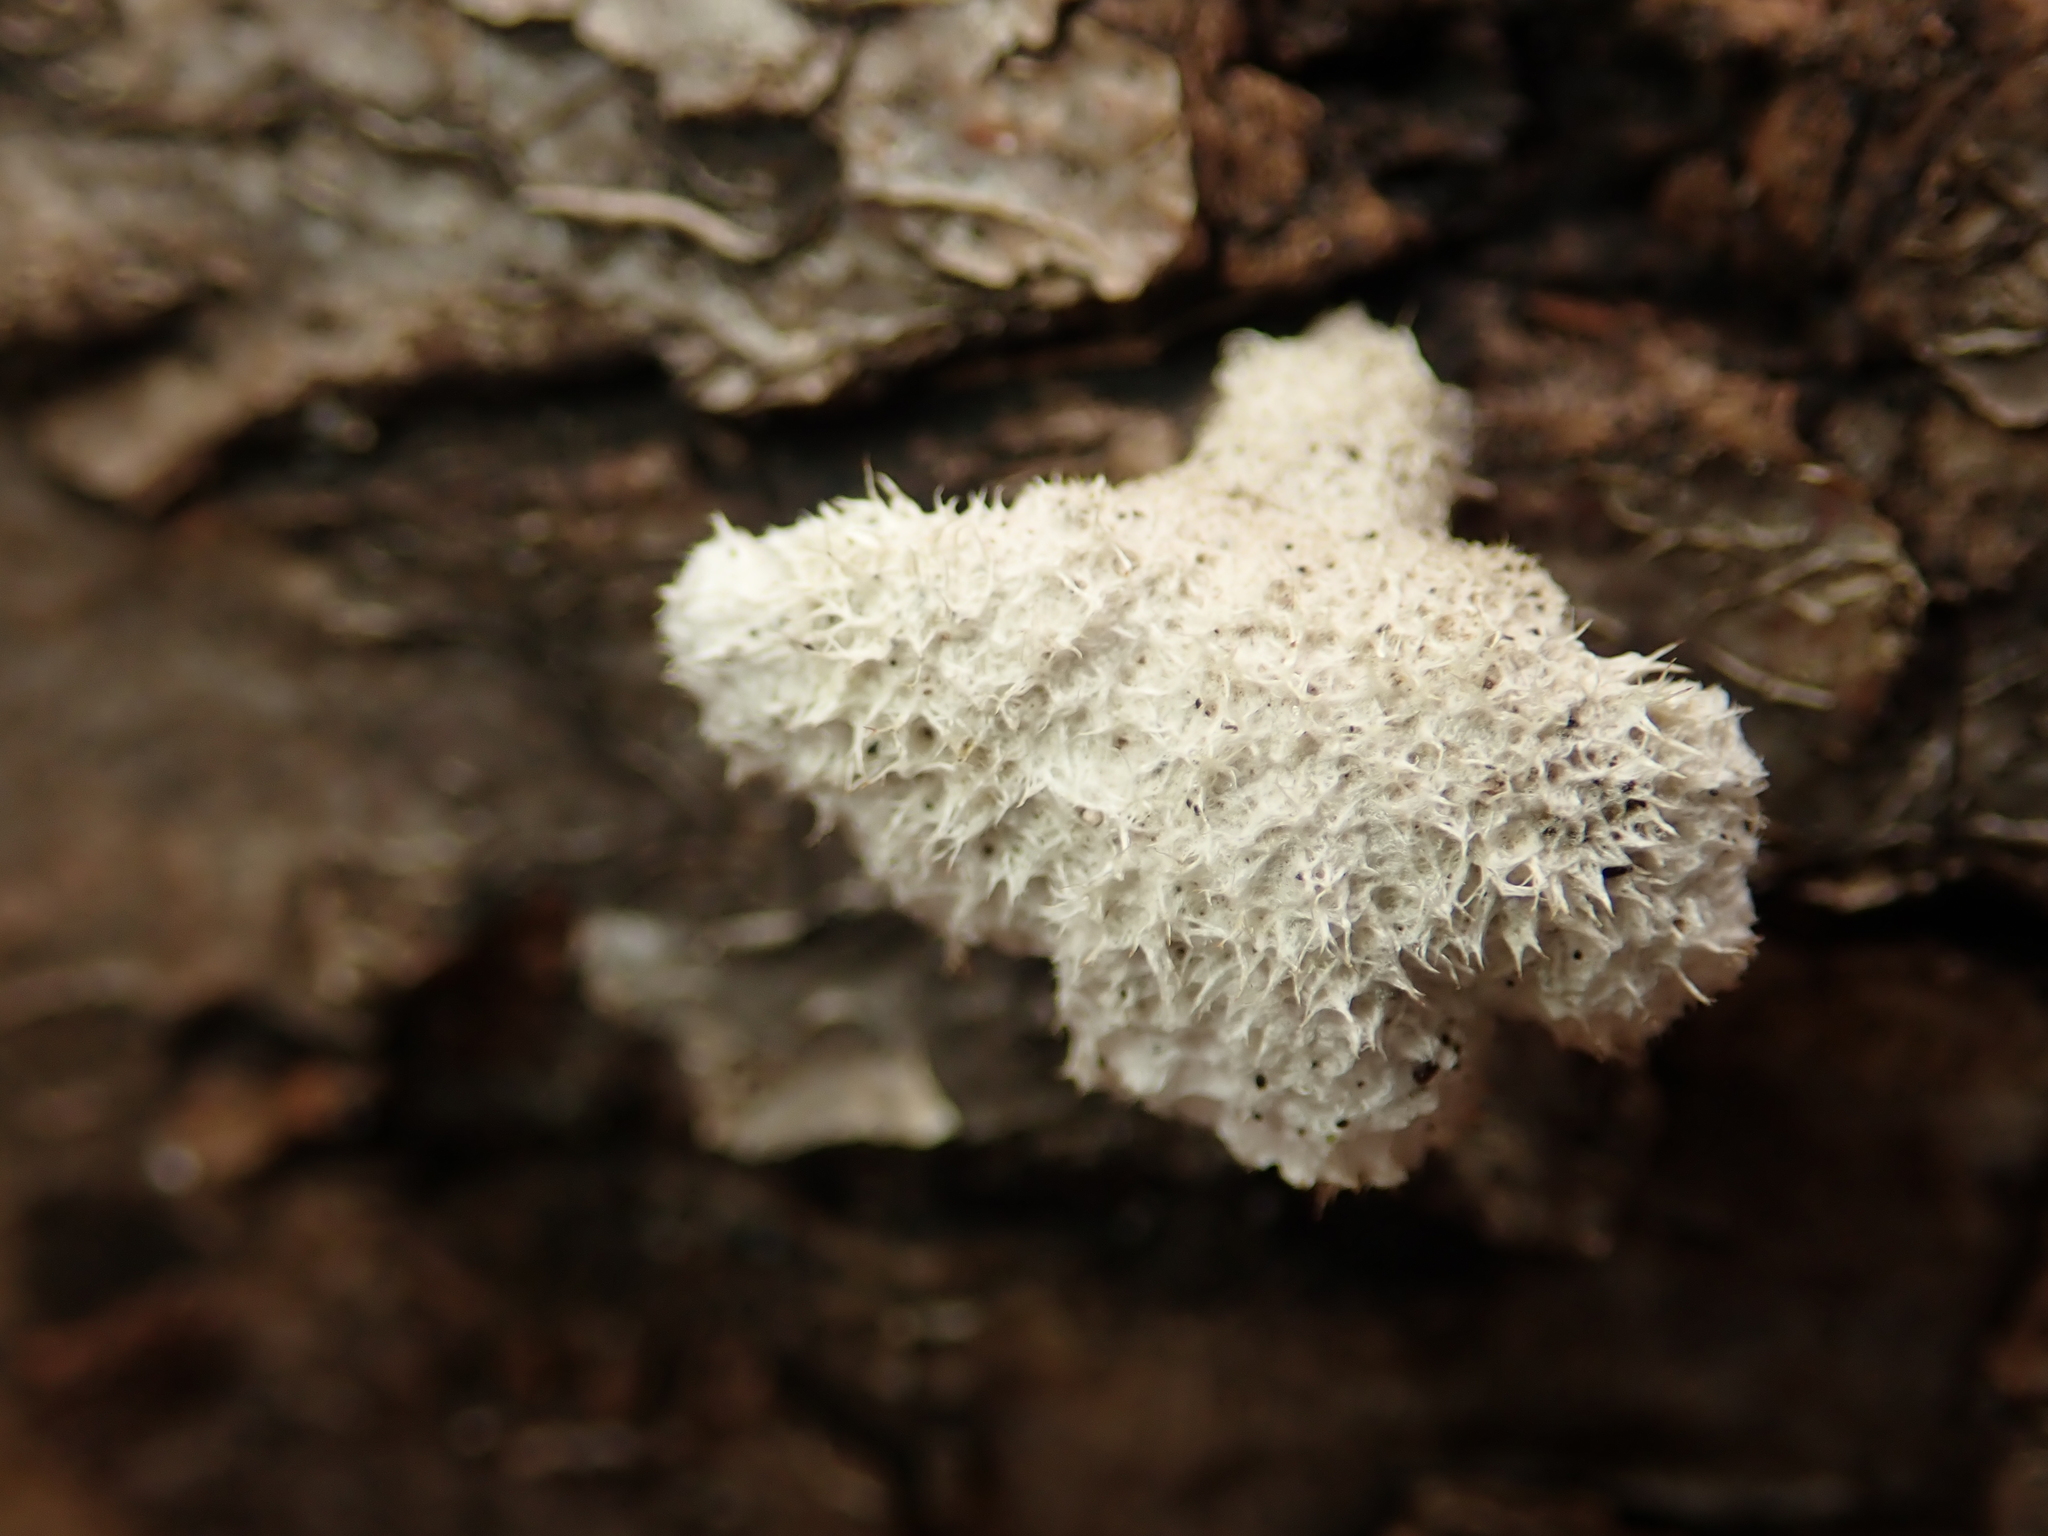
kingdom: Fungi
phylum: Basidiomycota
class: Agaricomycetes
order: Agaricales
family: Schizophyllaceae
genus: Schizophyllum
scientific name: Schizophyllum commune
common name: Common porecrust
